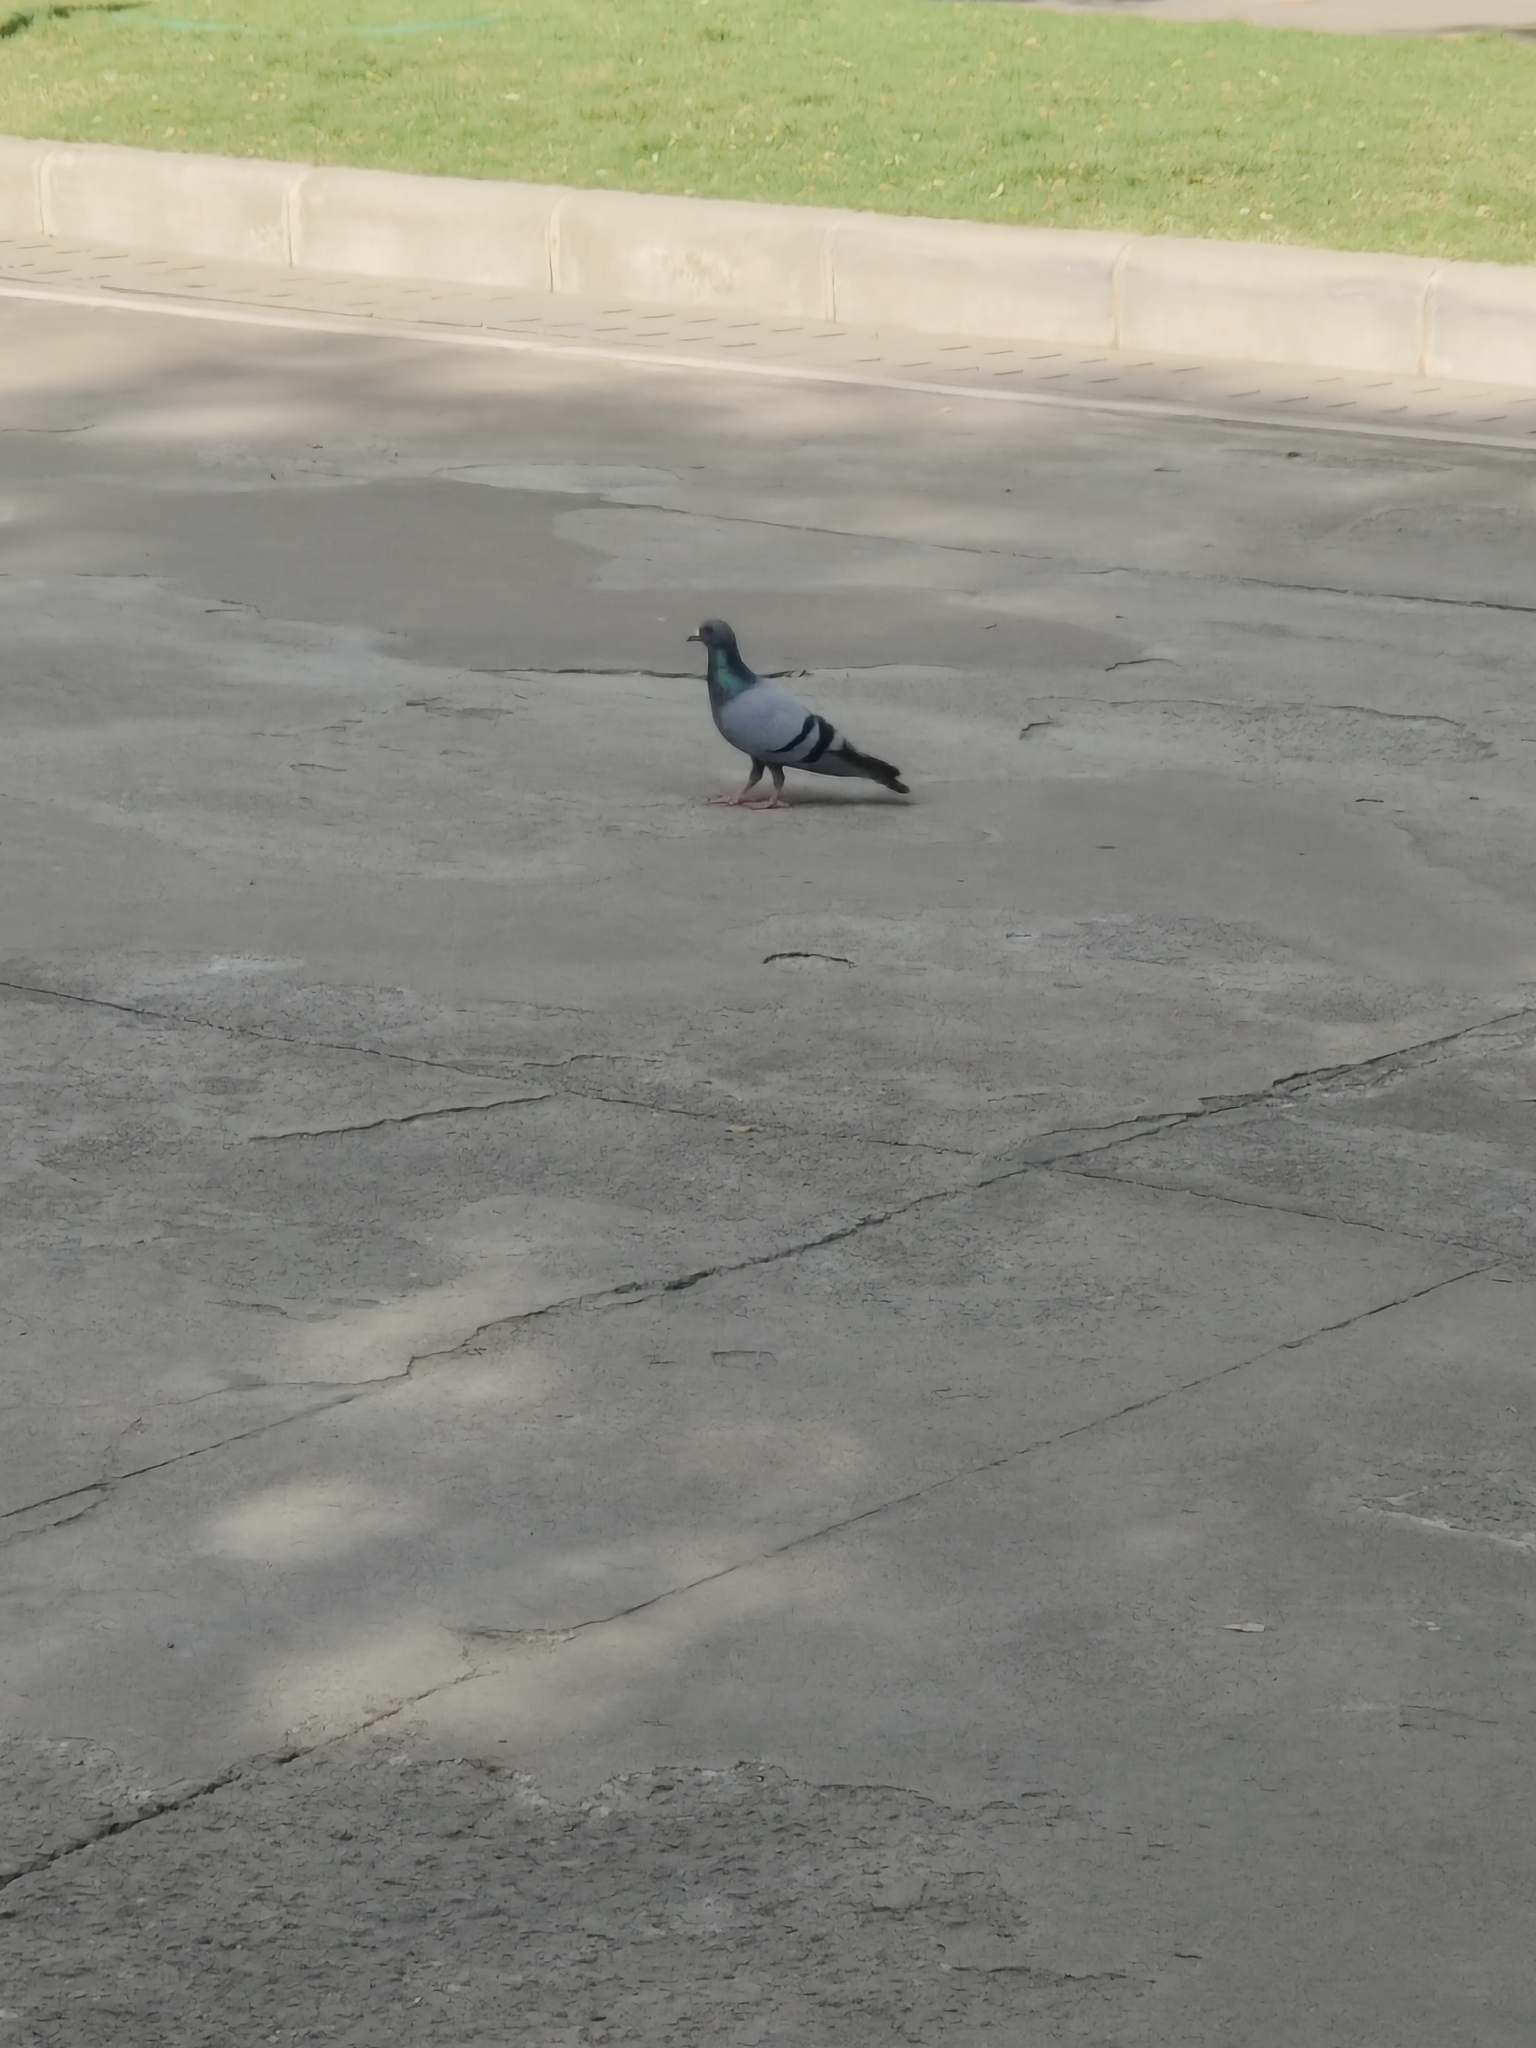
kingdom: Animalia
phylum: Chordata
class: Aves
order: Columbiformes
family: Columbidae
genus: Columba
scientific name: Columba livia
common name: Rock pigeon
